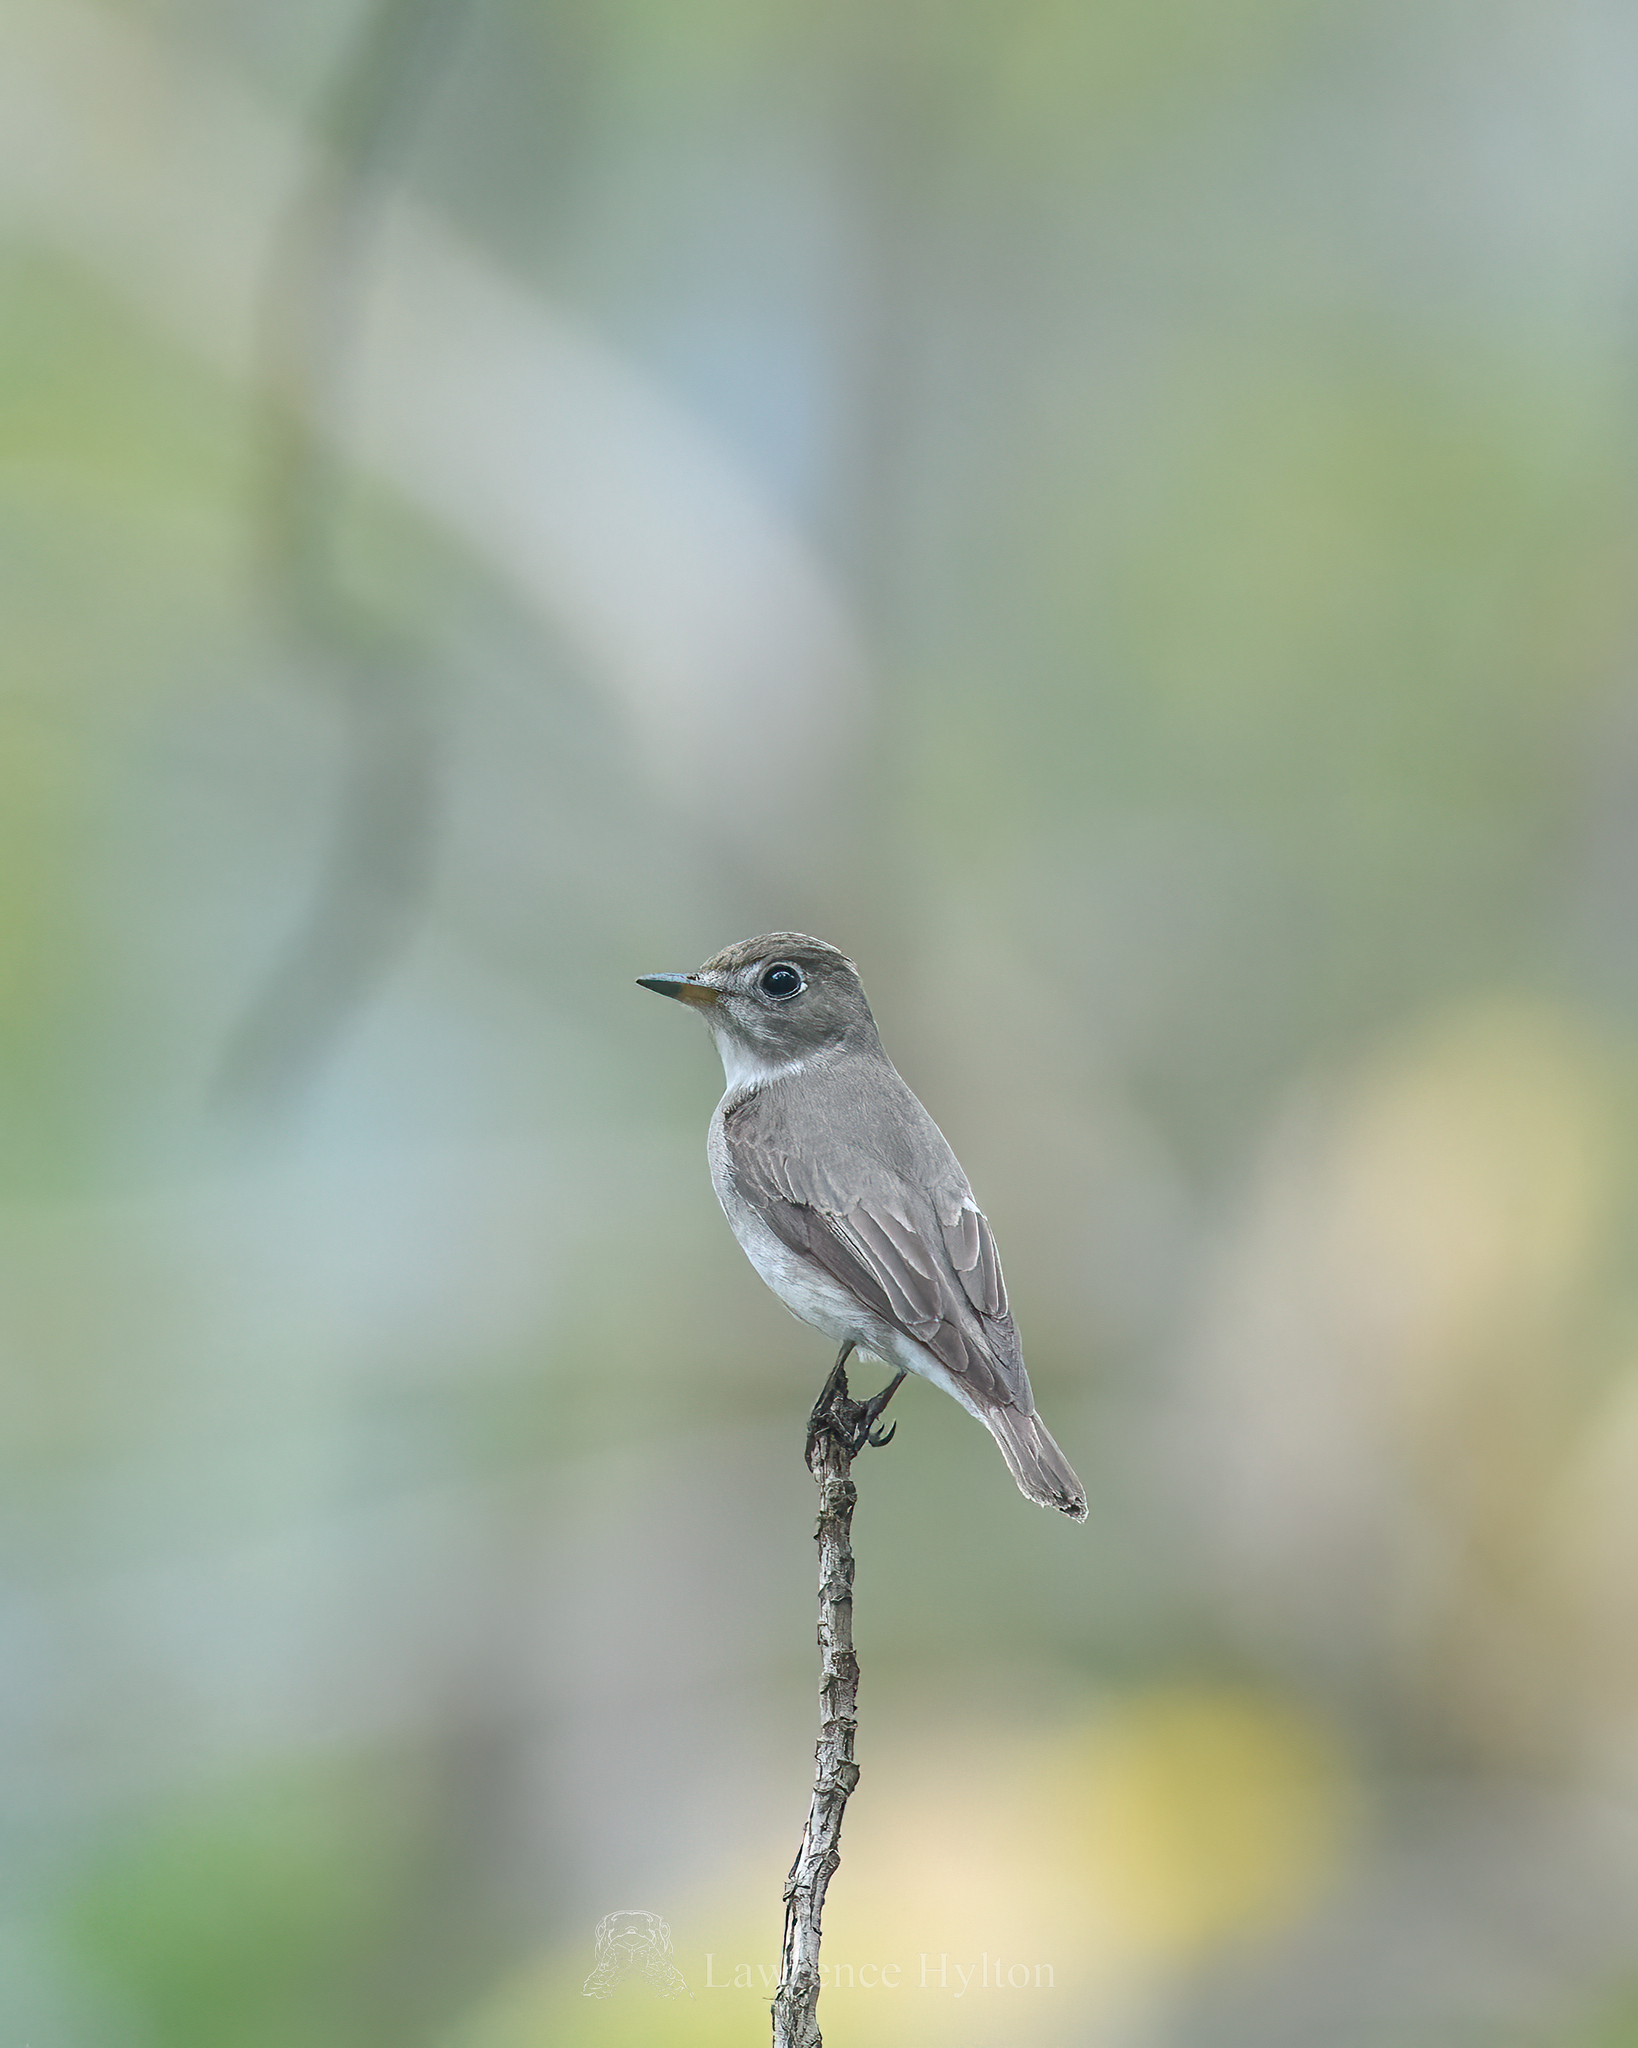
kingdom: Animalia
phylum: Chordata
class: Aves
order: Passeriformes
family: Muscicapidae
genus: Muscicapa
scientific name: Muscicapa latirostris
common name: Asian brown flycatcher
